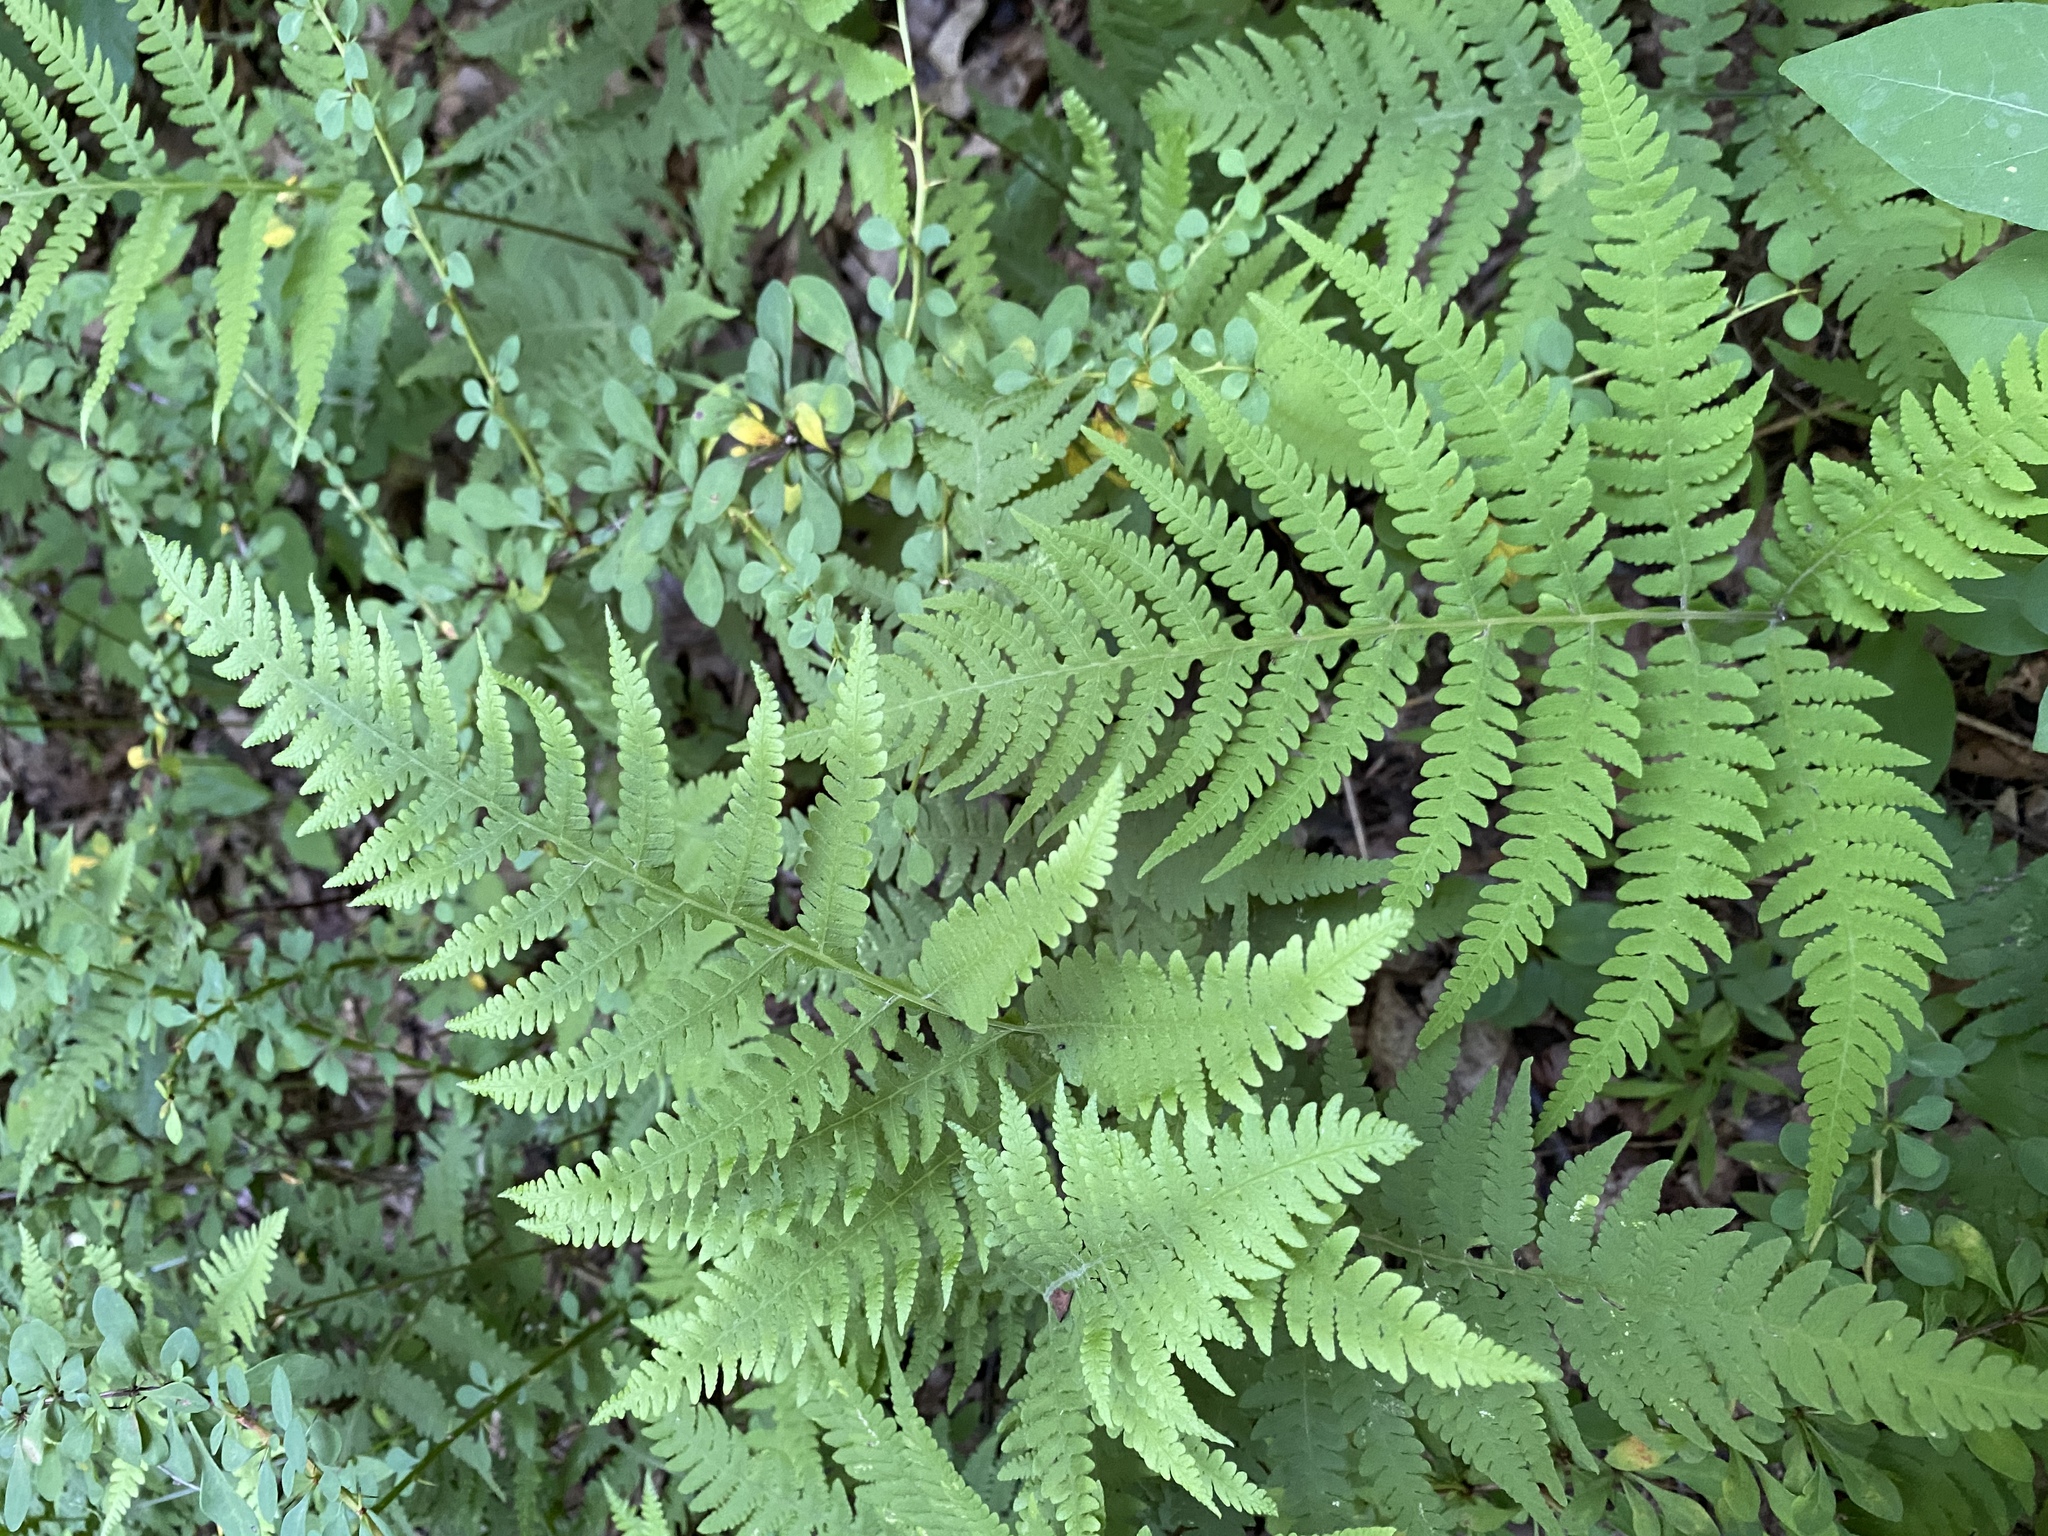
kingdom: Plantae
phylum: Tracheophyta
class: Polypodiopsida
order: Polypodiales
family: Thelypteridaceae
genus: Phegopteris
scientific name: Phegopteris hexagonoptera
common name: Broad beech fern
